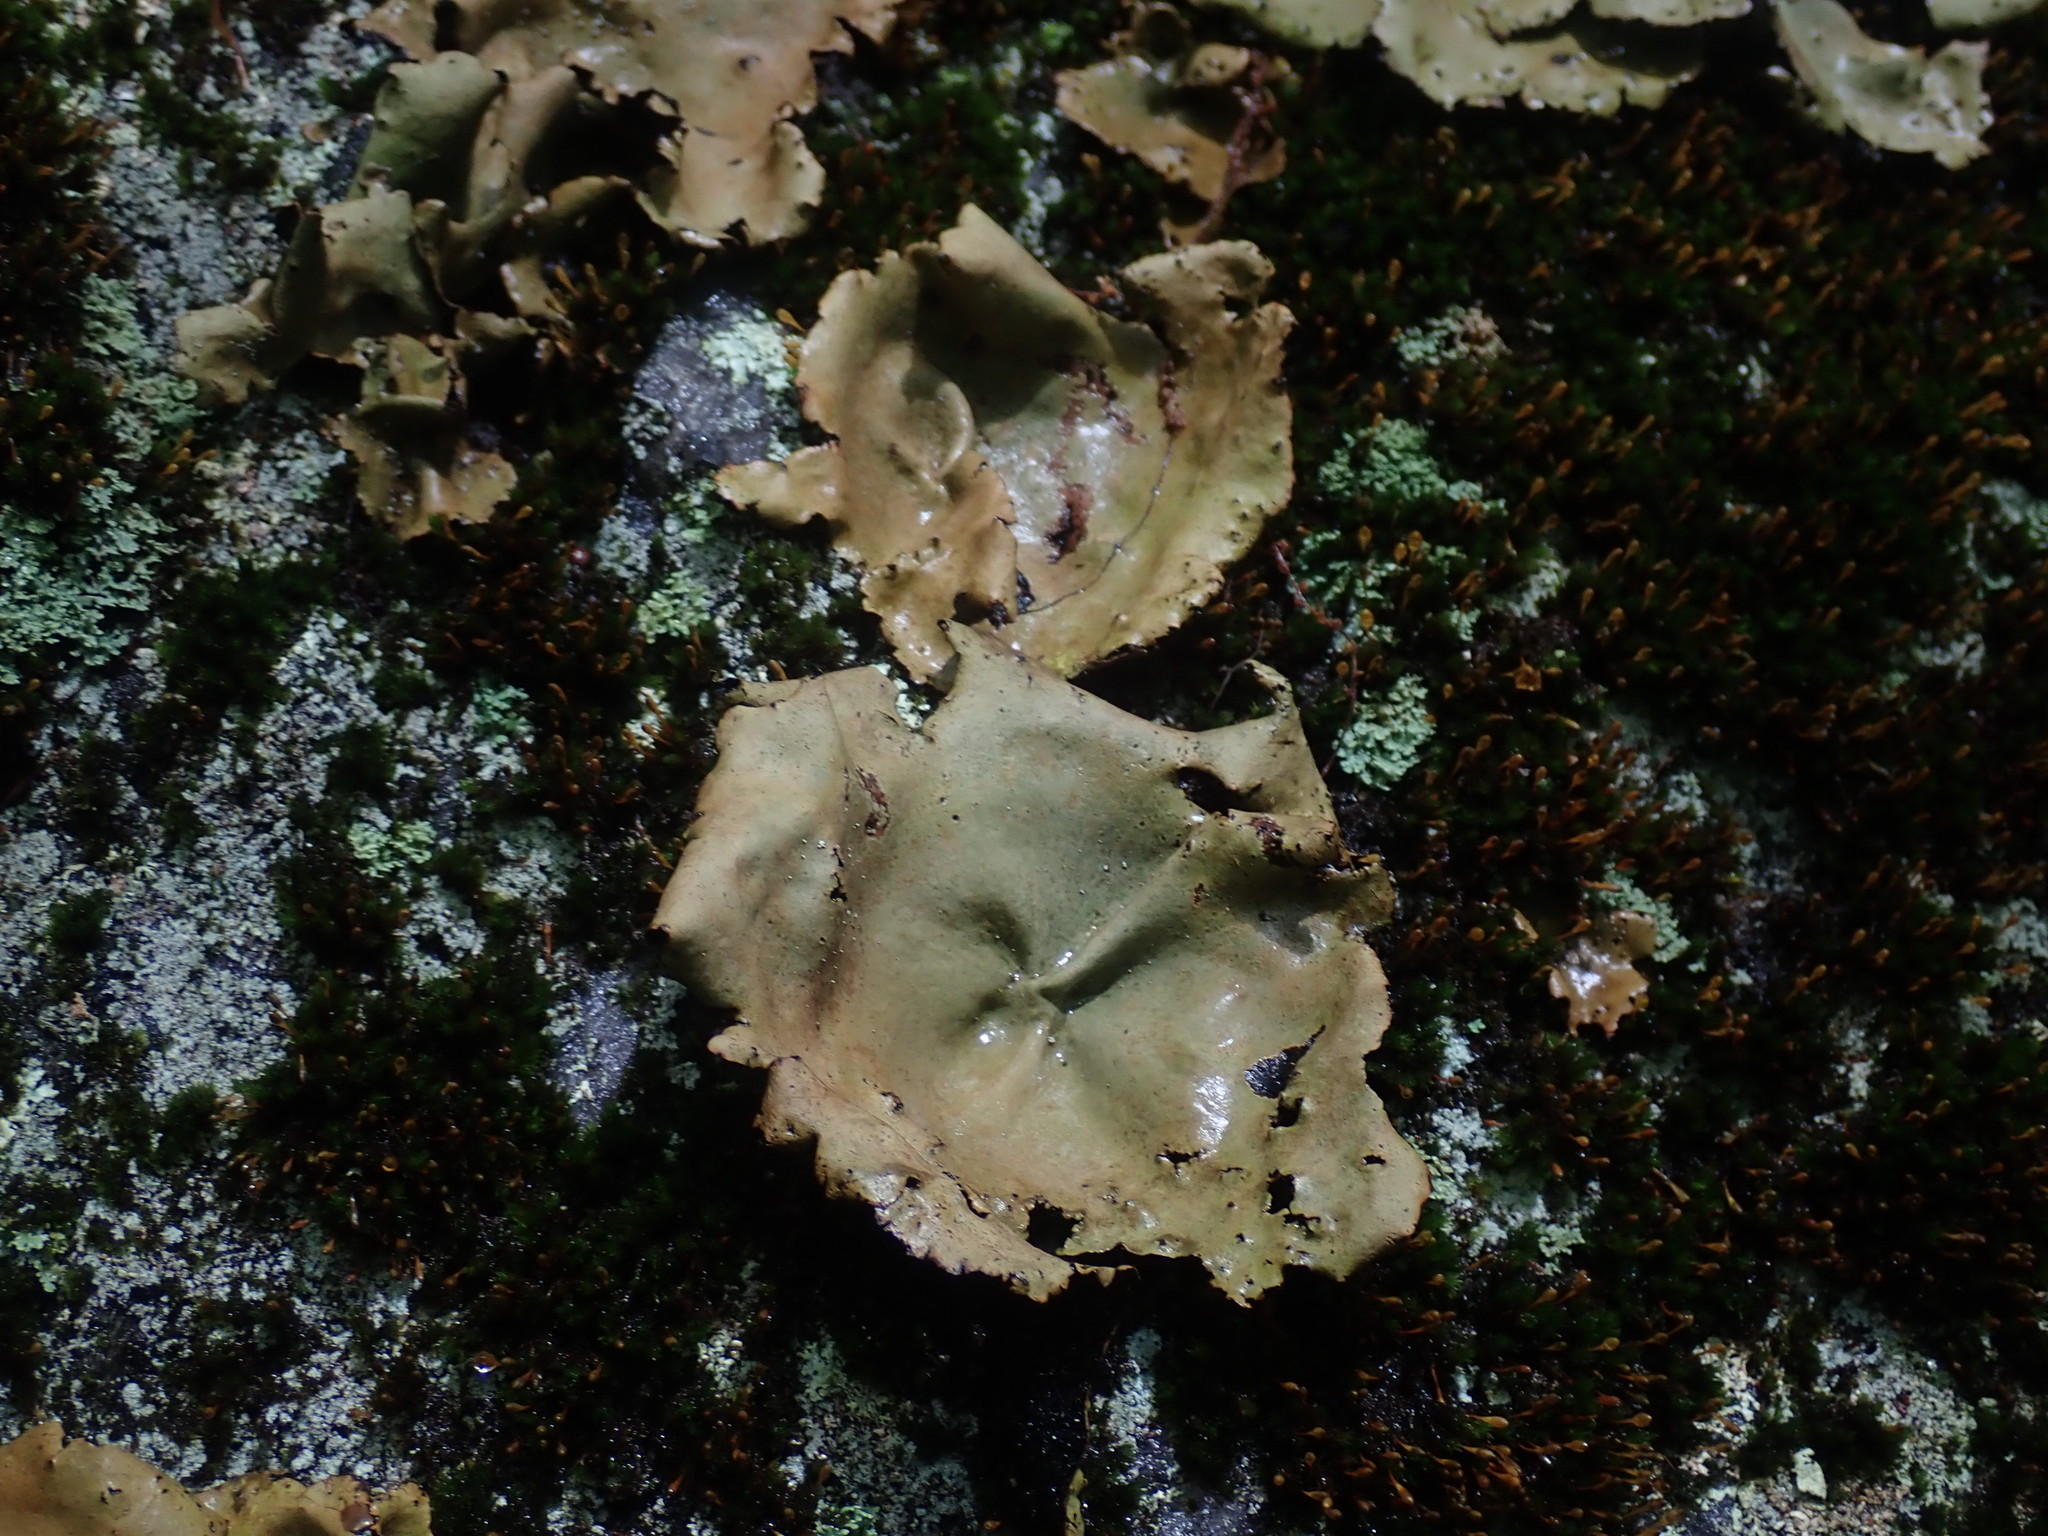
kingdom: Fungi
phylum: Ascomycota
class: Lecanoromycetes
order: Umbilicariales
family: Umbilicariaceae
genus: Umbilicaria
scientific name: Umbilicaria mammulata
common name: Smooth rock tripe
